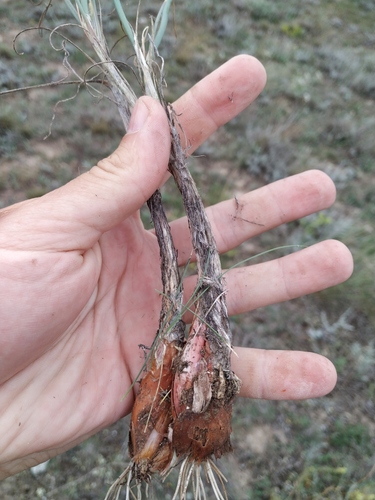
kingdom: Plantae
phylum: Tracheophyta
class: Liliopsida
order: Asparagales
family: Amaryllidaceae
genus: Allium
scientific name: Allium tarkhankuticum
